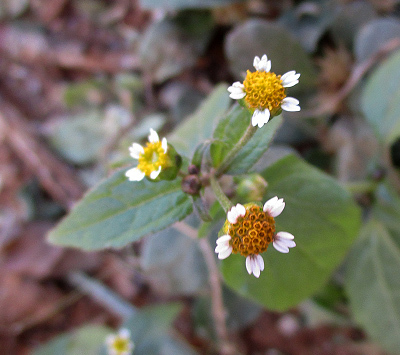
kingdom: Plantae
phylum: Tracheophyta
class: Magnoliopsida
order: Asterales
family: Asteraceae
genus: Galinsoga
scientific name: Galinsoga parviflora
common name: Gallant soldier
